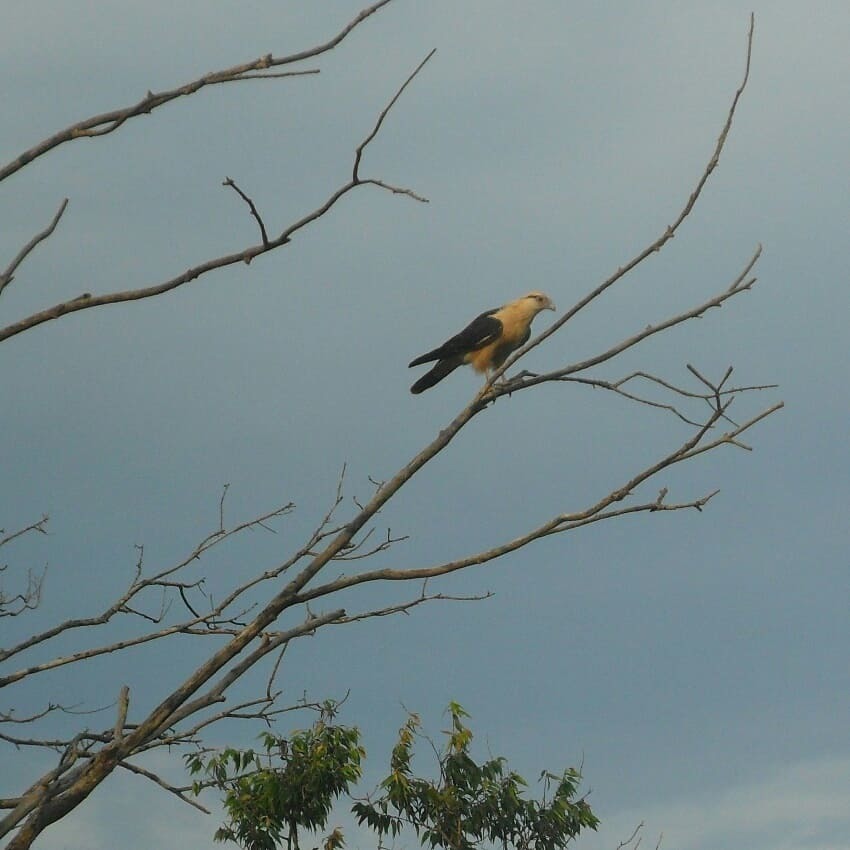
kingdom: Animalia
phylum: Chordata
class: Aves
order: Falconiformes
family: Falconidae
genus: Daptrius
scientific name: Daptrius
